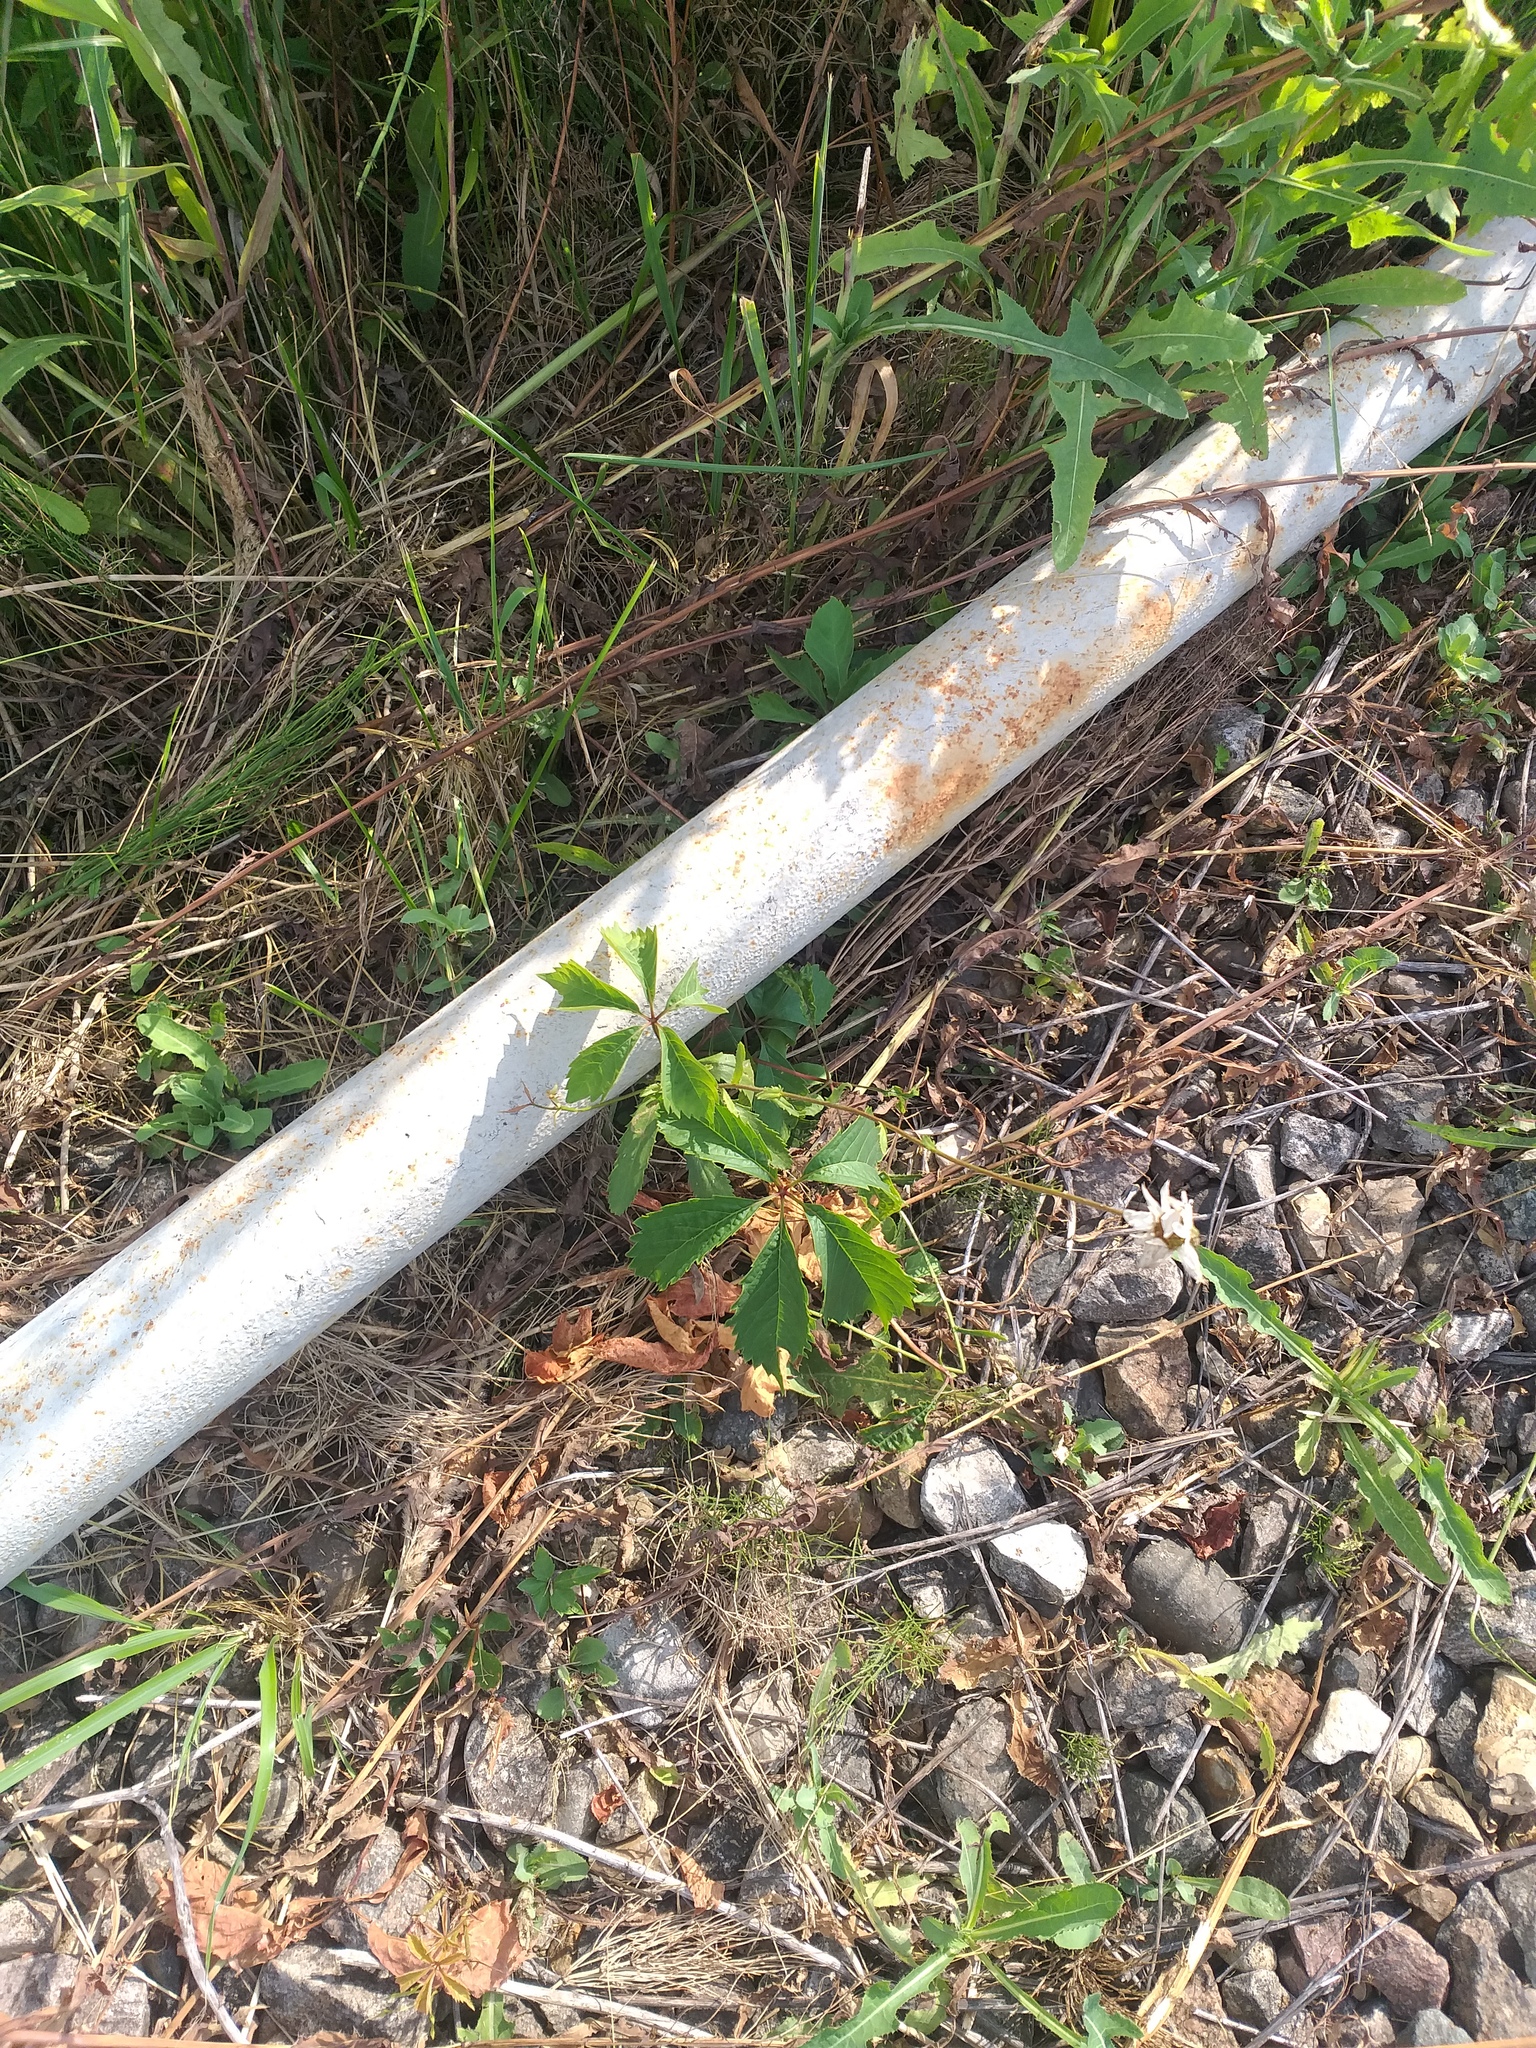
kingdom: Plantae
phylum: Tracheophyta
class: Magnoliopsida
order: Vitales
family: Vitaceae
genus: Parthenocissus
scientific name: Parthenocissus inserta
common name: False virginia-creeper
